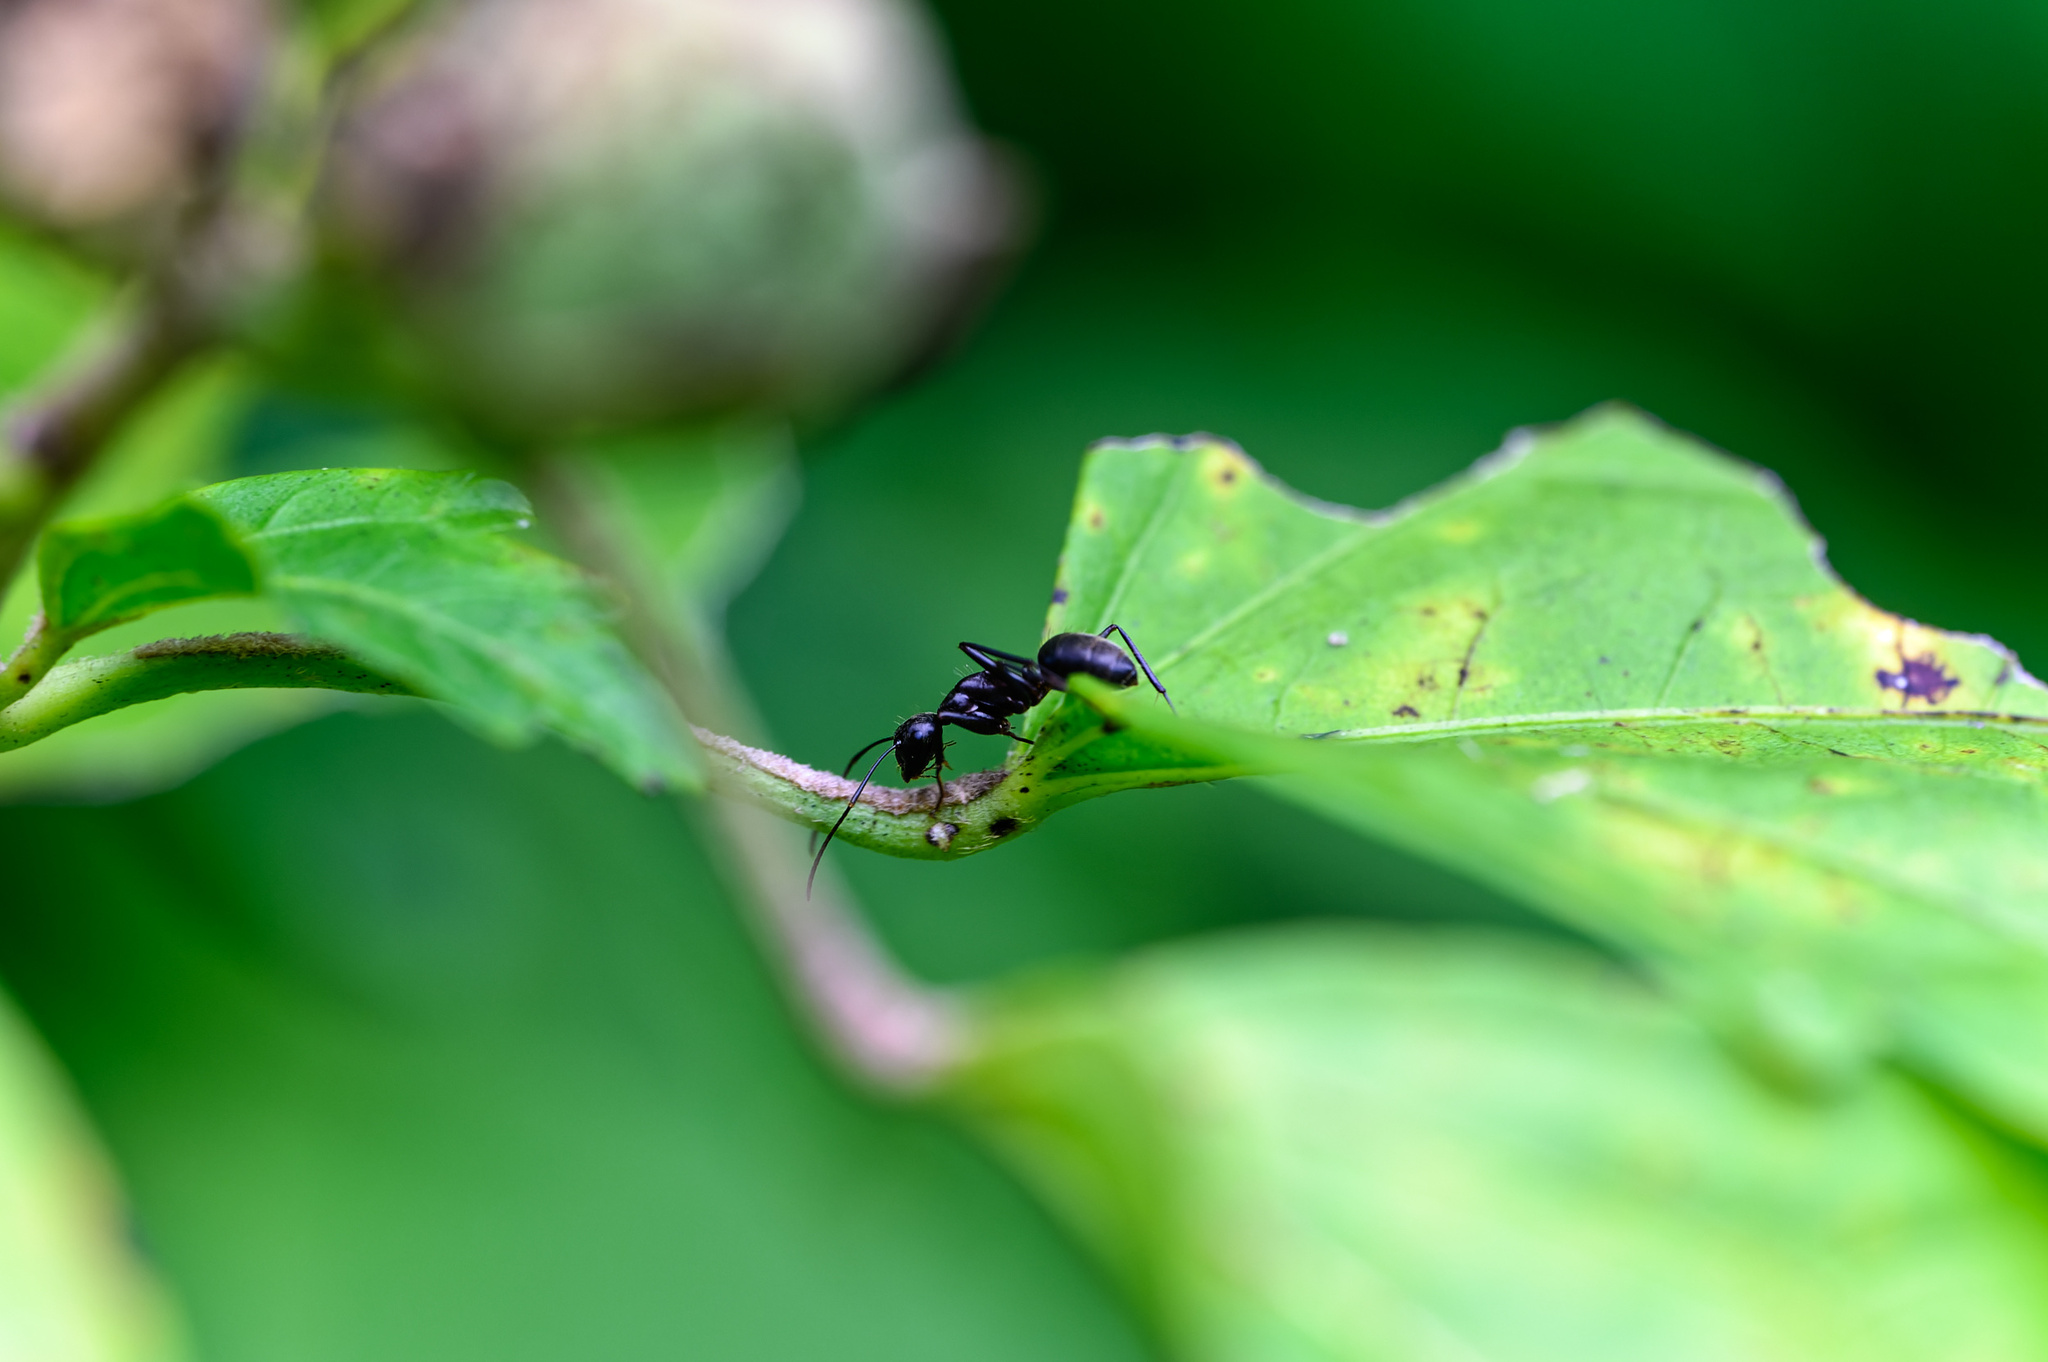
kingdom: Animalia
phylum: Arthropoda
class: Insecta
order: Hymenoptera
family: Formicidae
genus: Camponotus
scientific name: Camponotus pennsylvanicus
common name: Black carpenter ant
